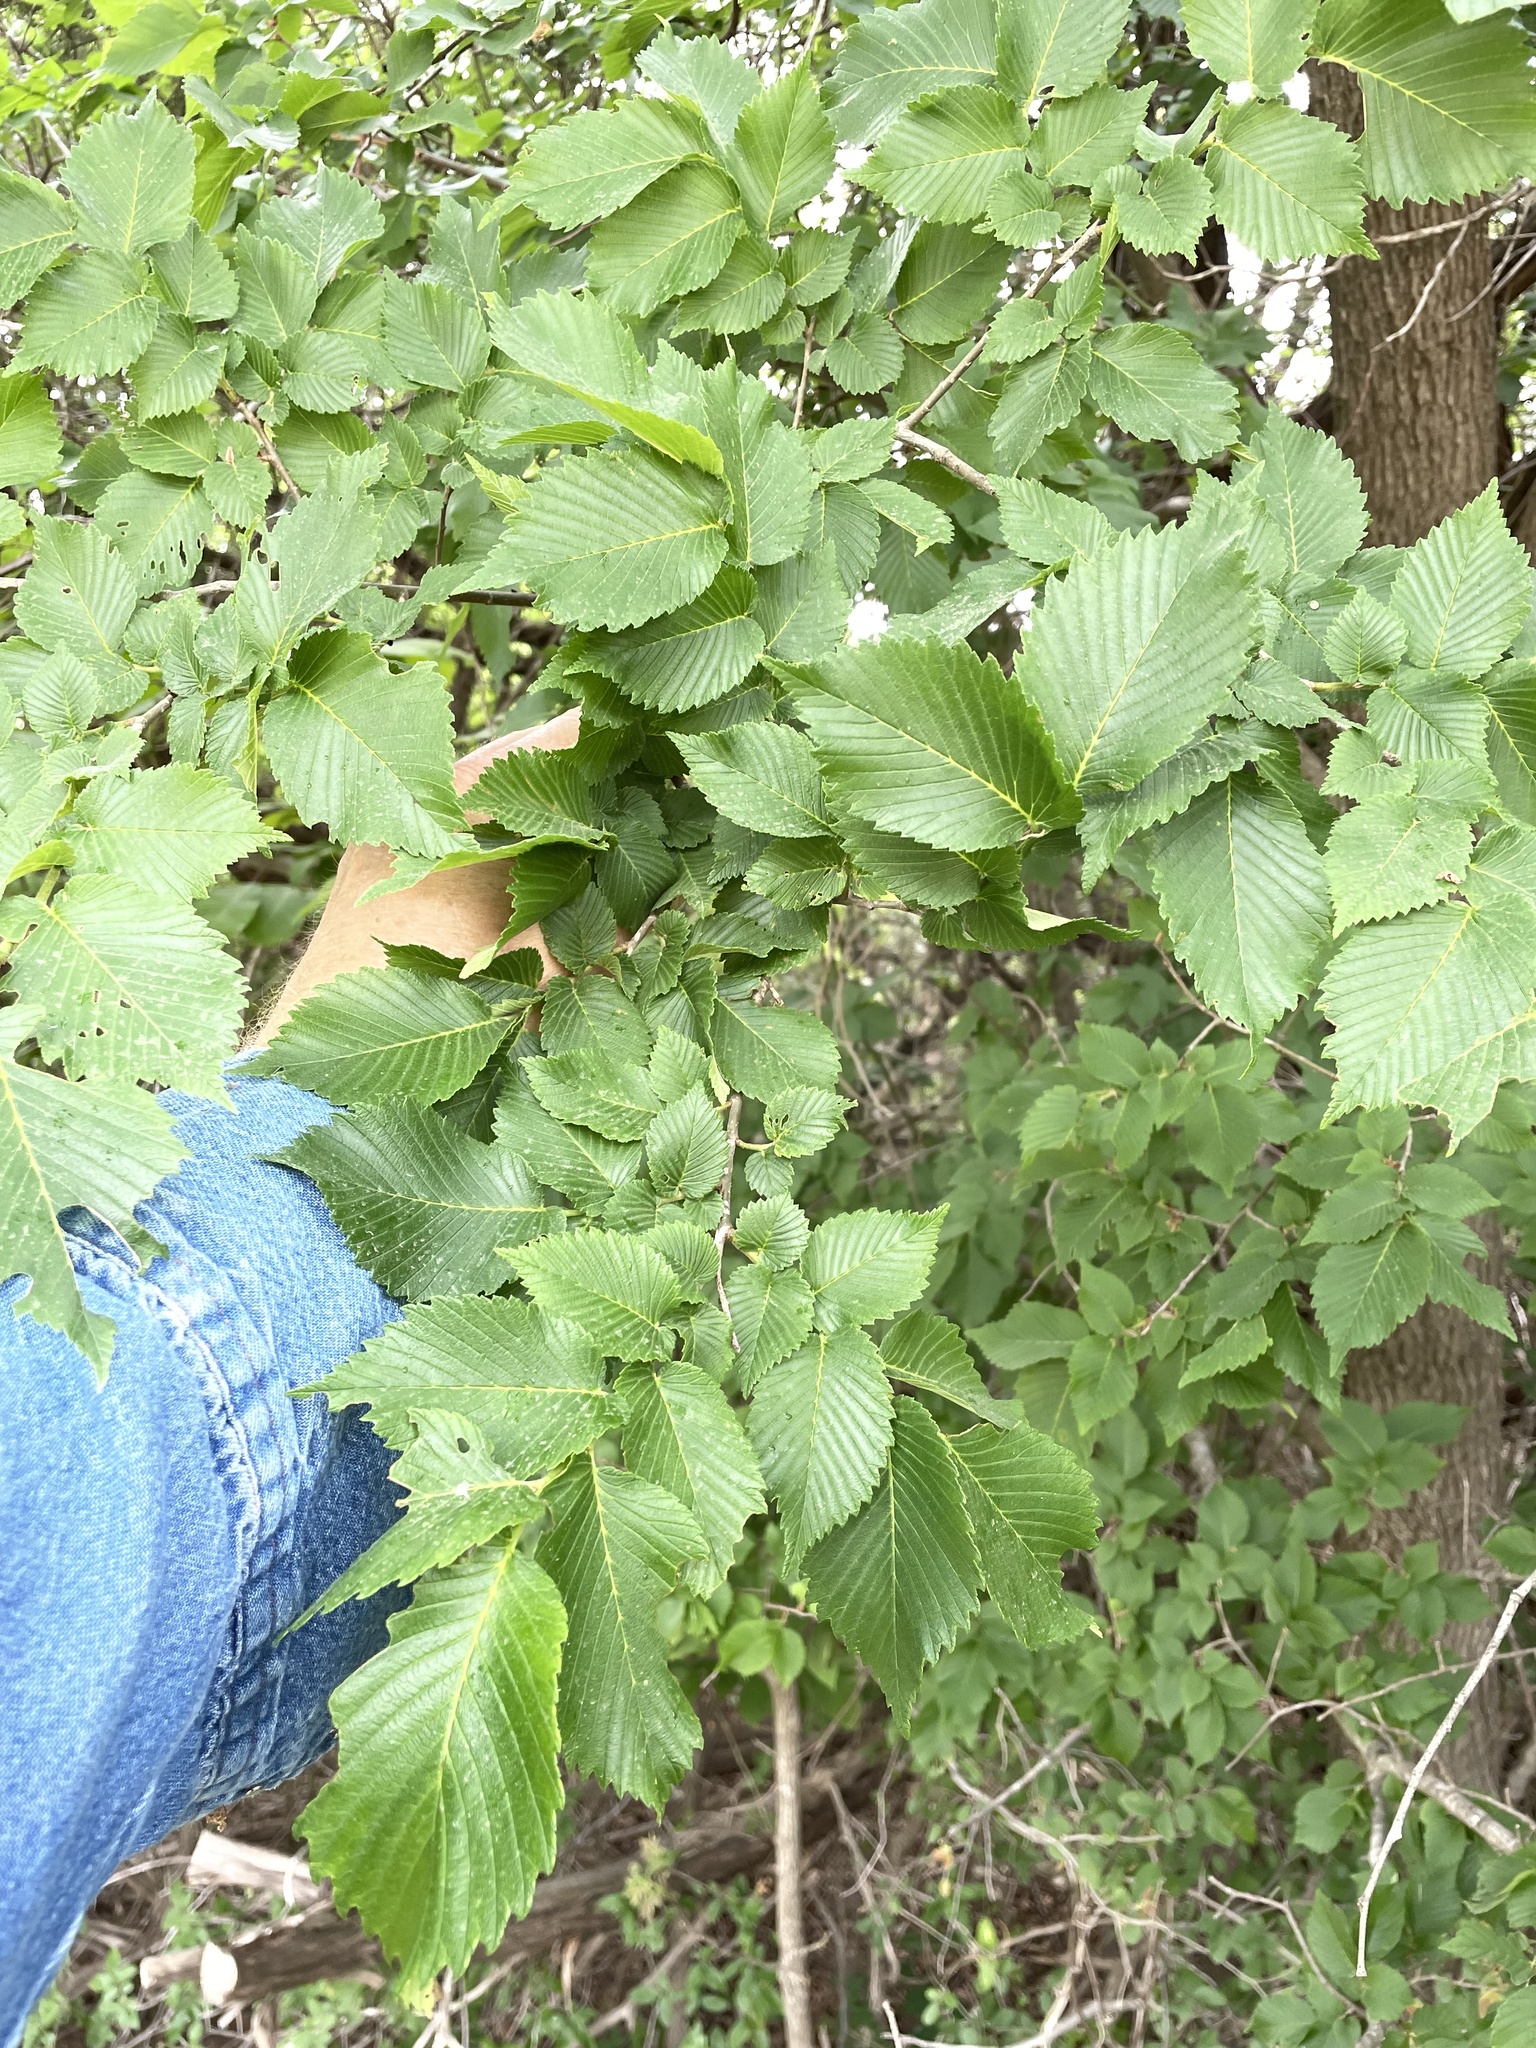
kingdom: Plantae
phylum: Tracheophyta
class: Magnoliopsida
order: Rosales
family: Ulmaceae
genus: Ulmus
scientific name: Ulmus rubra
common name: Slippery elm
